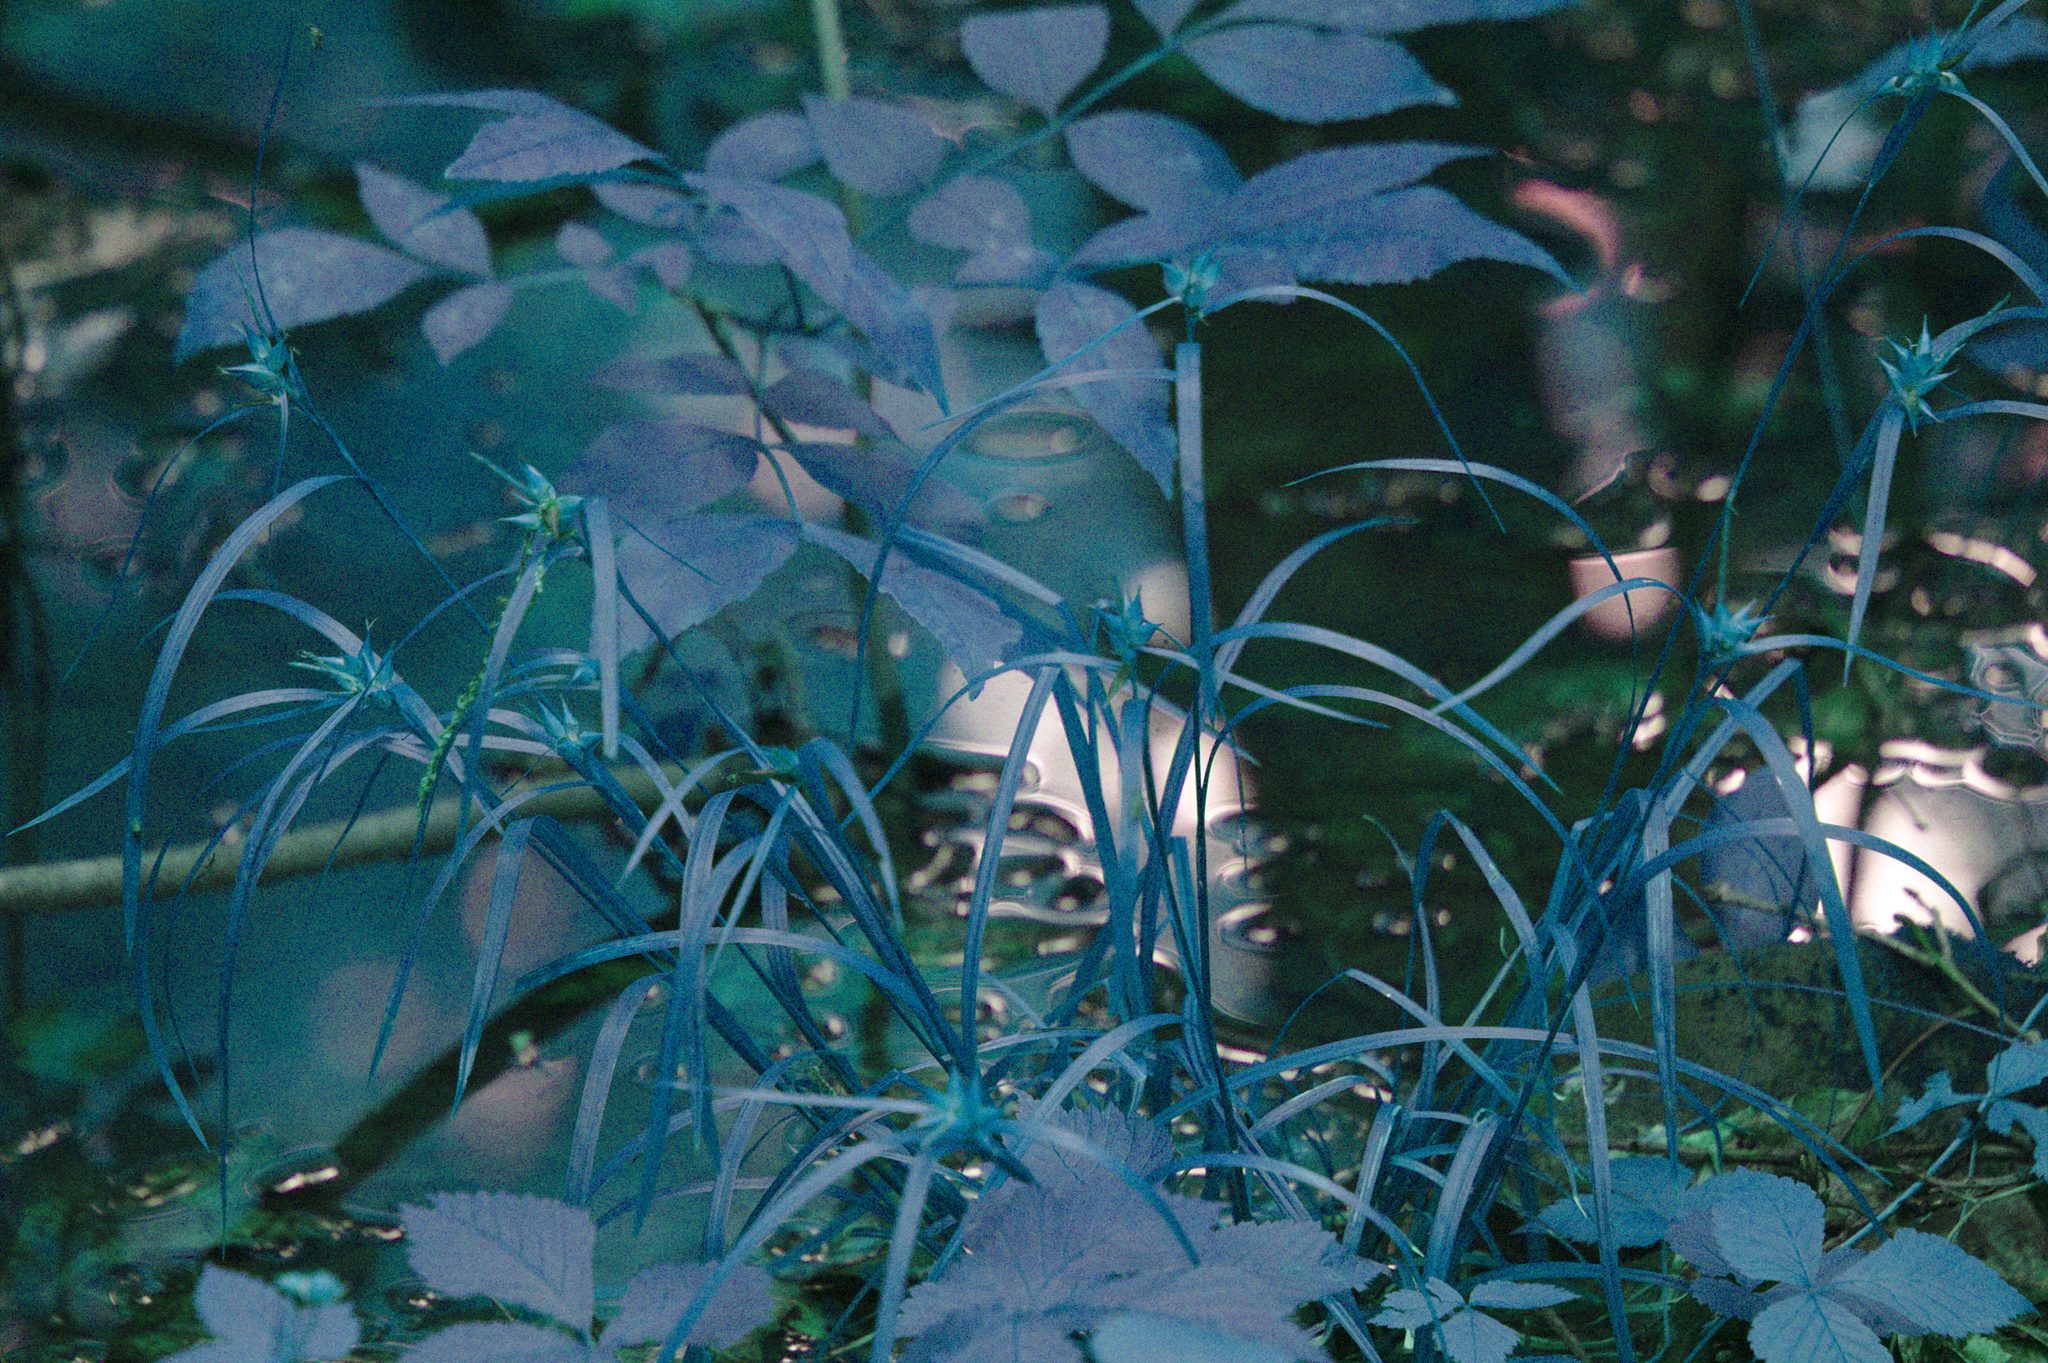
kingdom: Plantae
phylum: Tracheophyta
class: Liliopsida
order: Poales
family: Cyperaceae
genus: Carex
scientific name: Carex intumescens
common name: Greater bladder sedge
